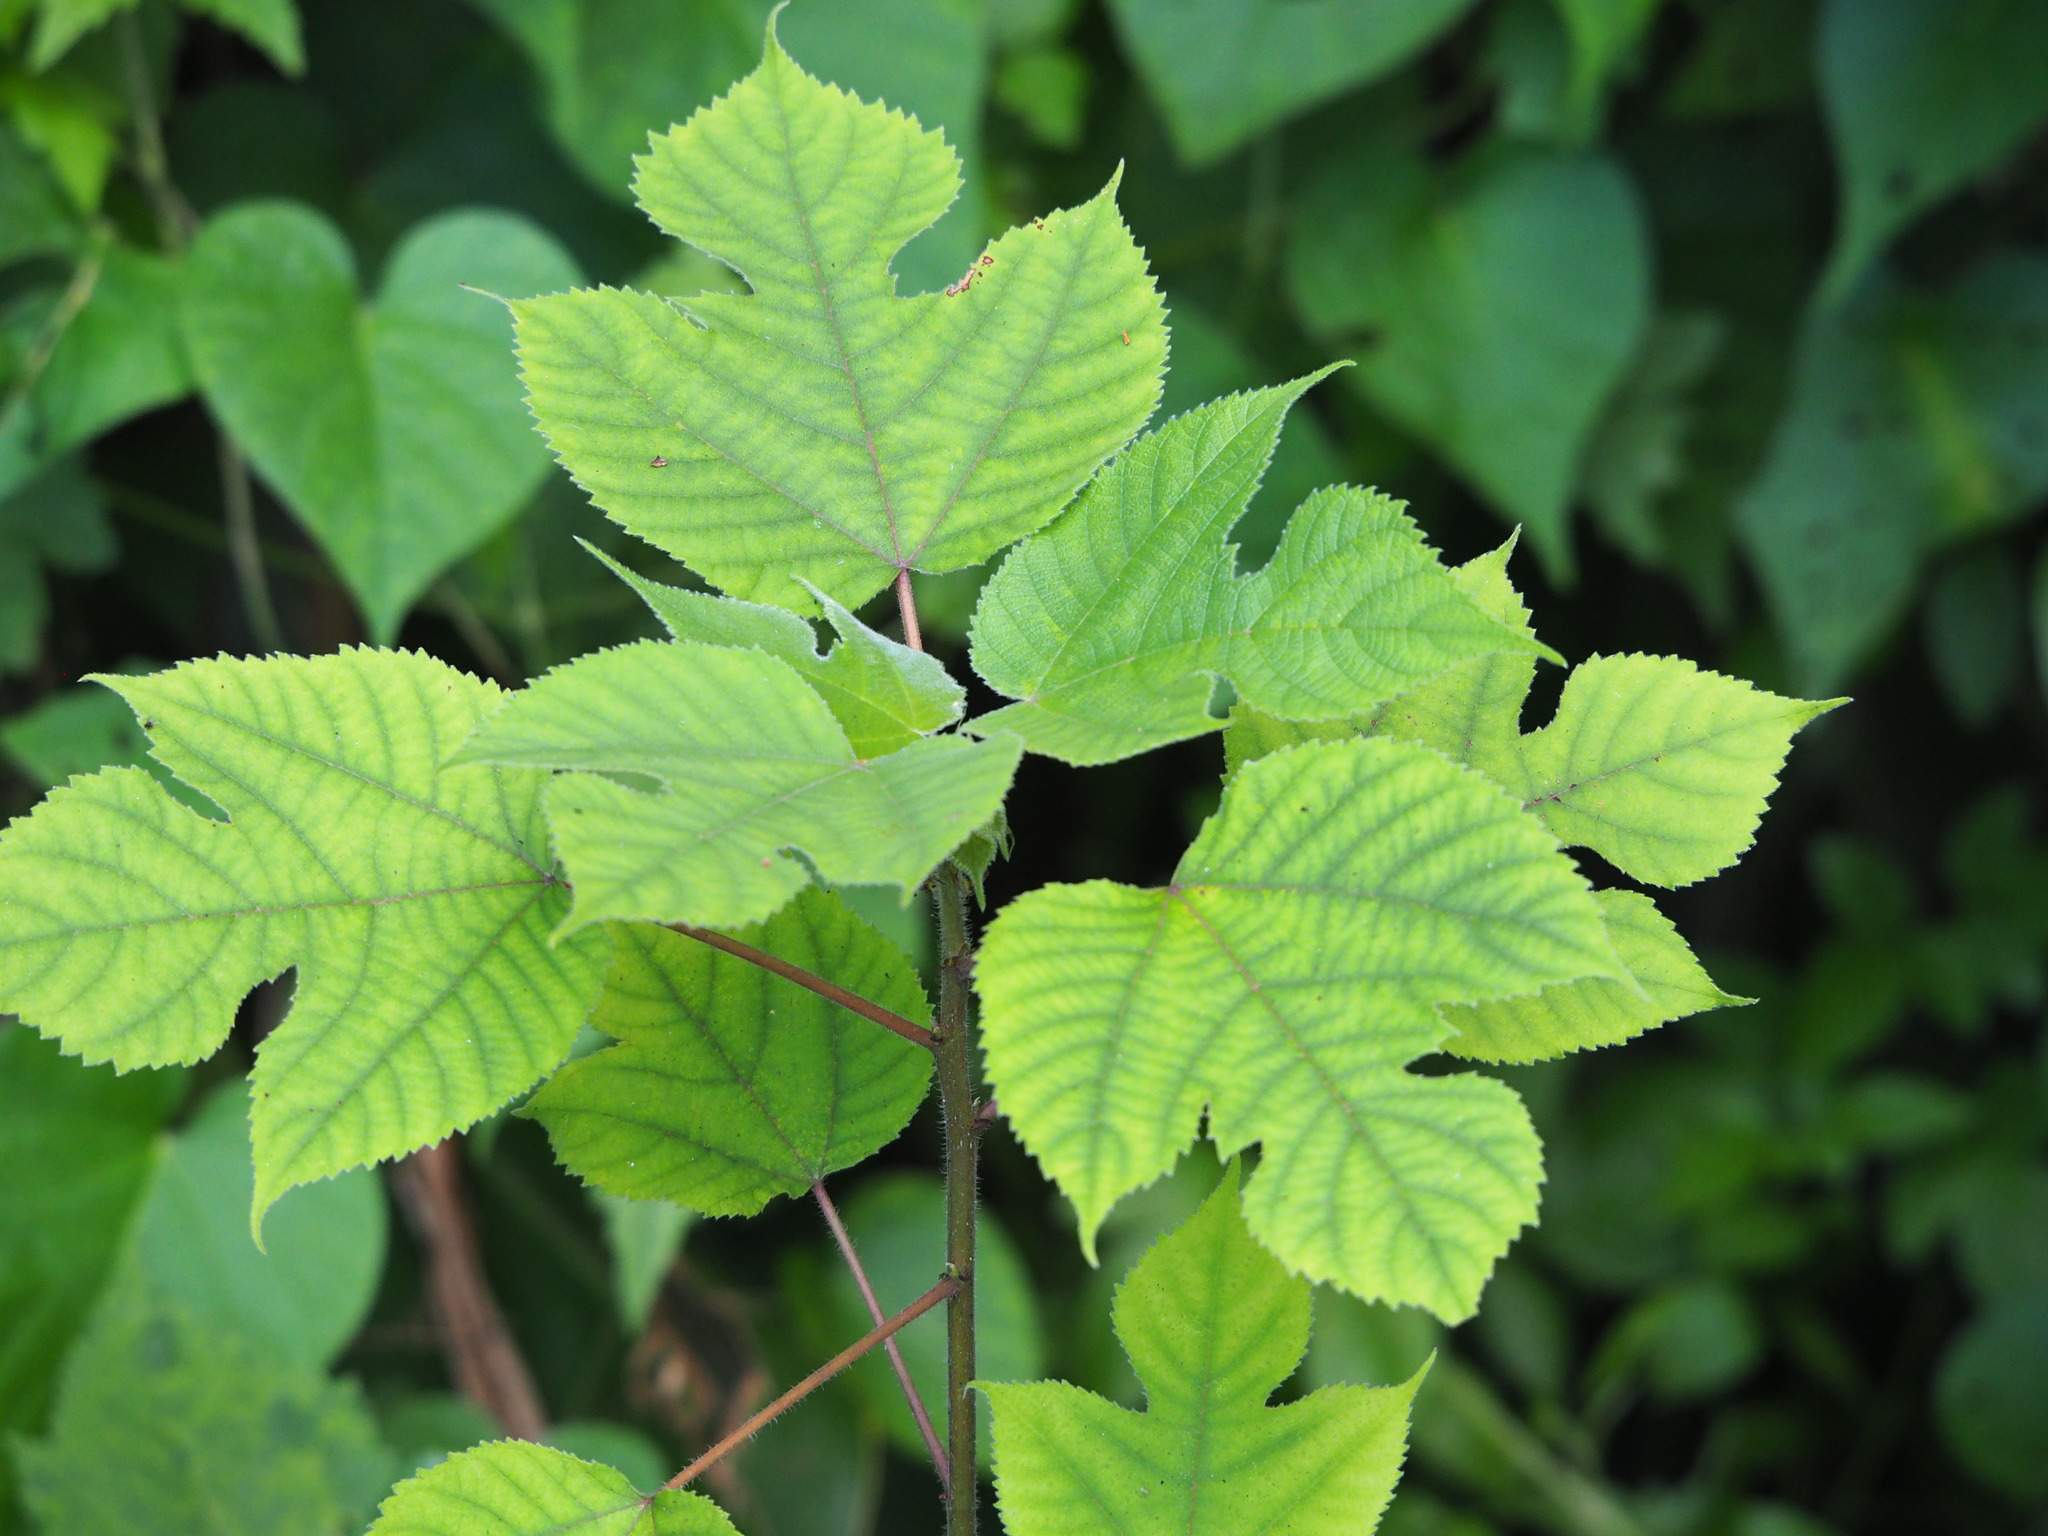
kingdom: Plantae
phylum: Tracheophyta
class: Magnoliopsida
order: Rosales
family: Moraceae
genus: Broussonetia
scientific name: Broussonetia papyrifera
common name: Paper mulberry
